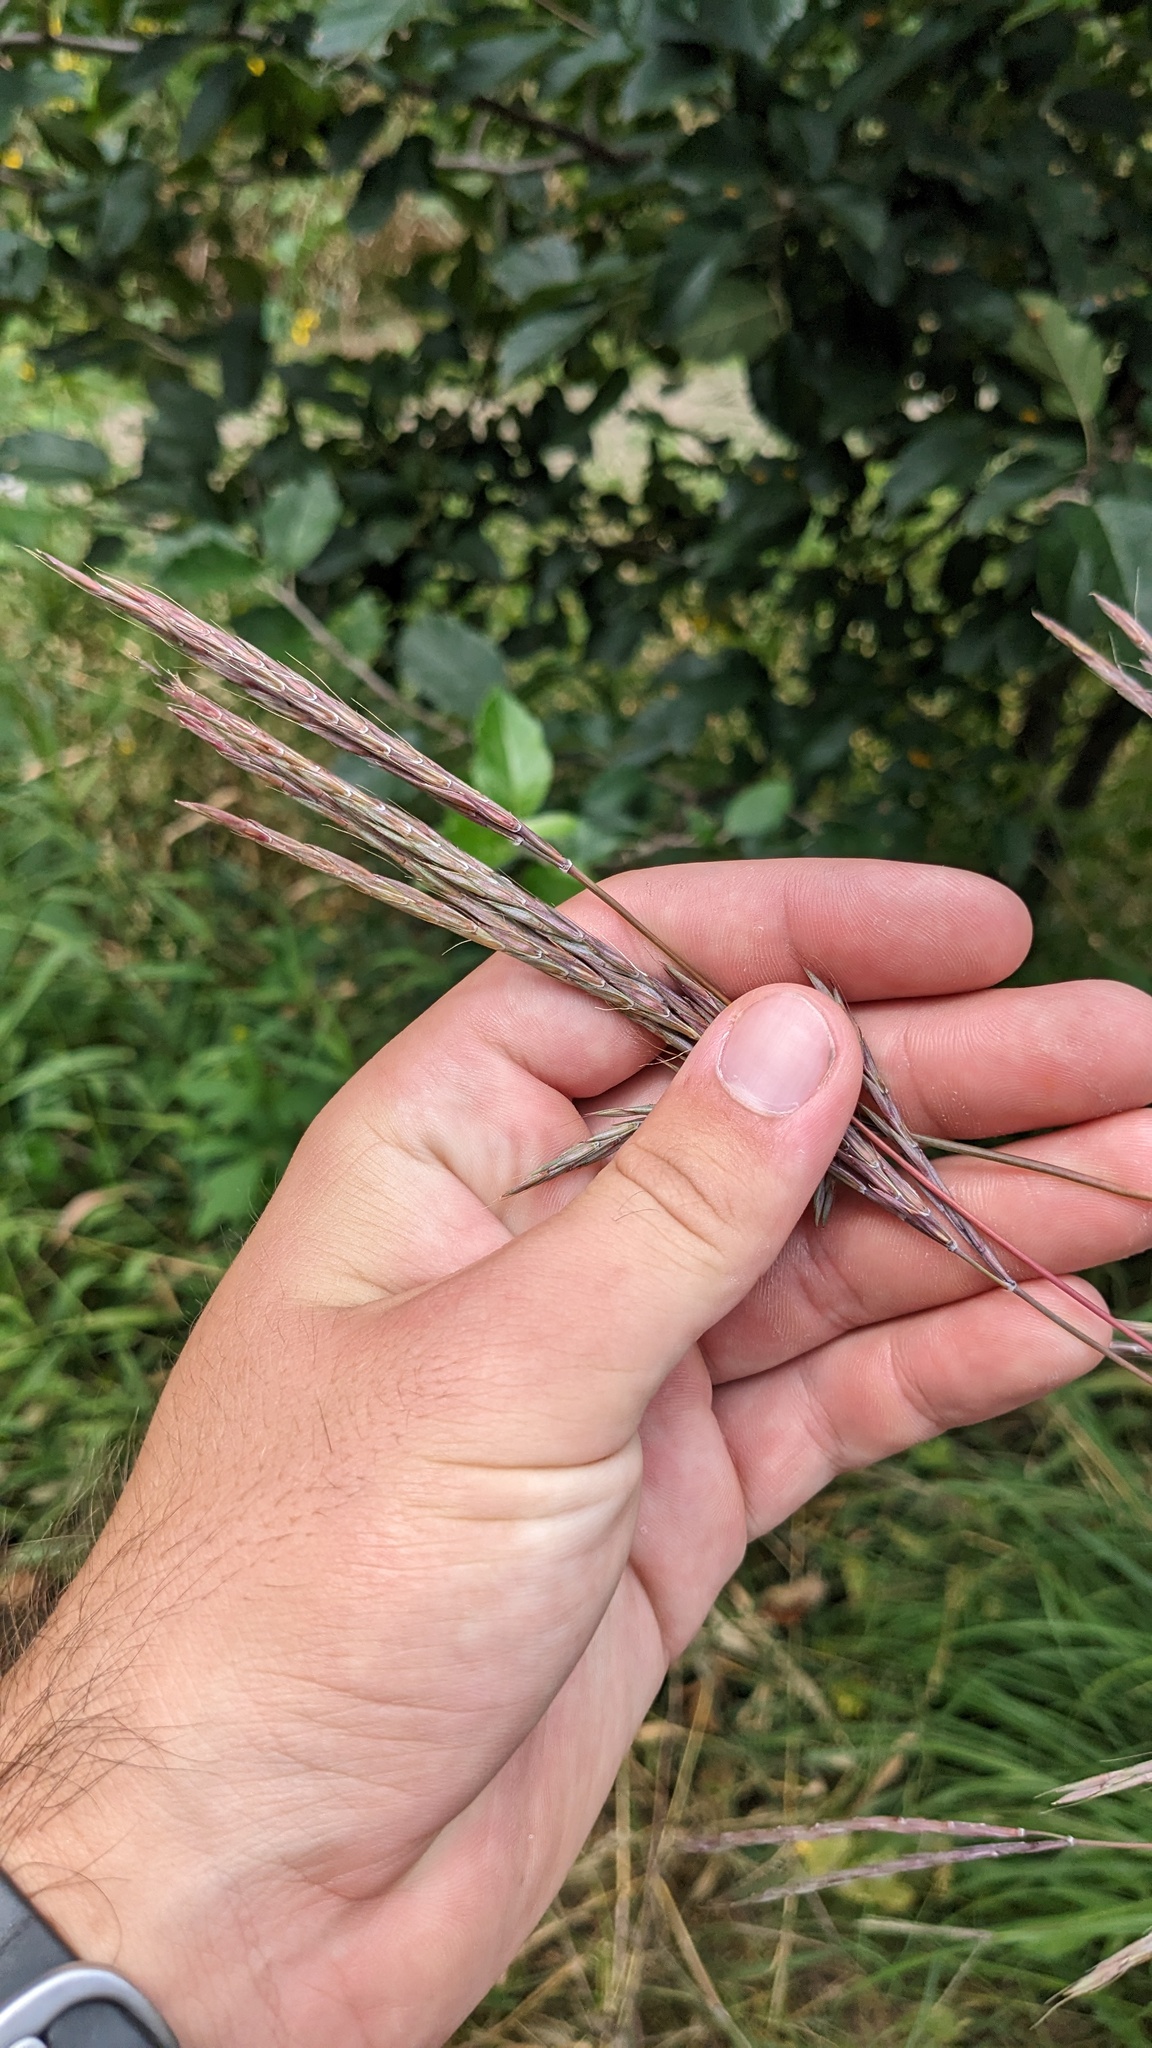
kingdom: Plantae
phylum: Tracheophyta
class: Liliopsida
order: Poales
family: Poaceae
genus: Andropogon
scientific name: Andropogon gerardi
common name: Big bluestem
